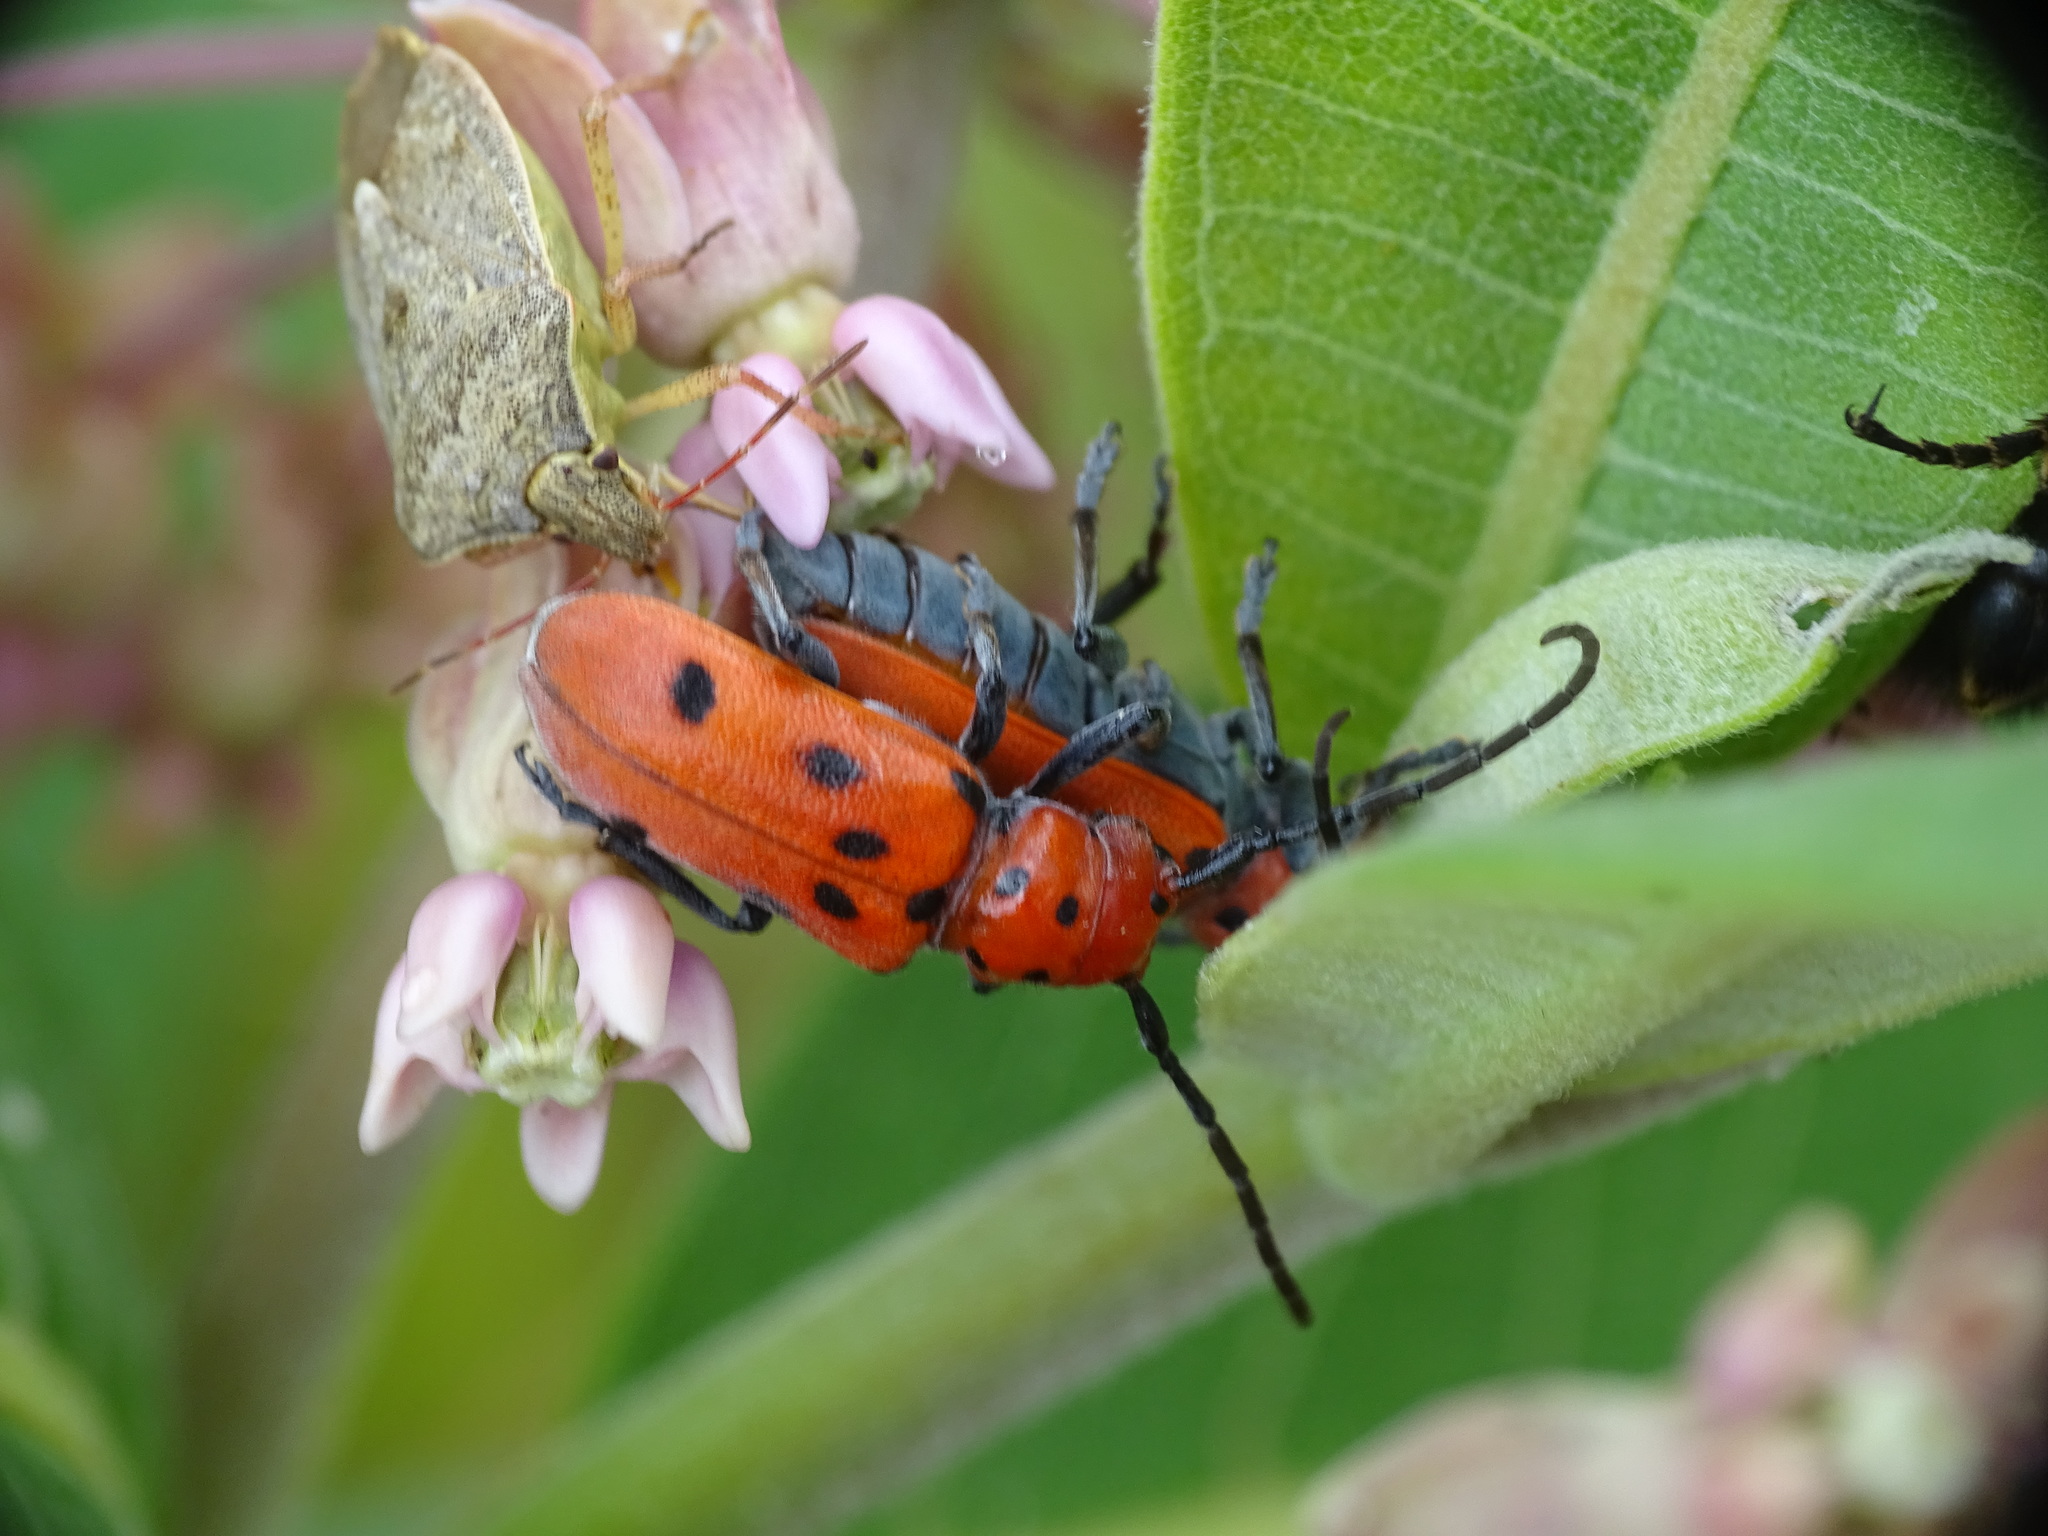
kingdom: Animalia
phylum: Arthropoda
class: Insecta
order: Coleoptera
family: Cerambycidae
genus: Tetraopes
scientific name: Tetraopes tetrophthalmus
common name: Red milkweed beetle
